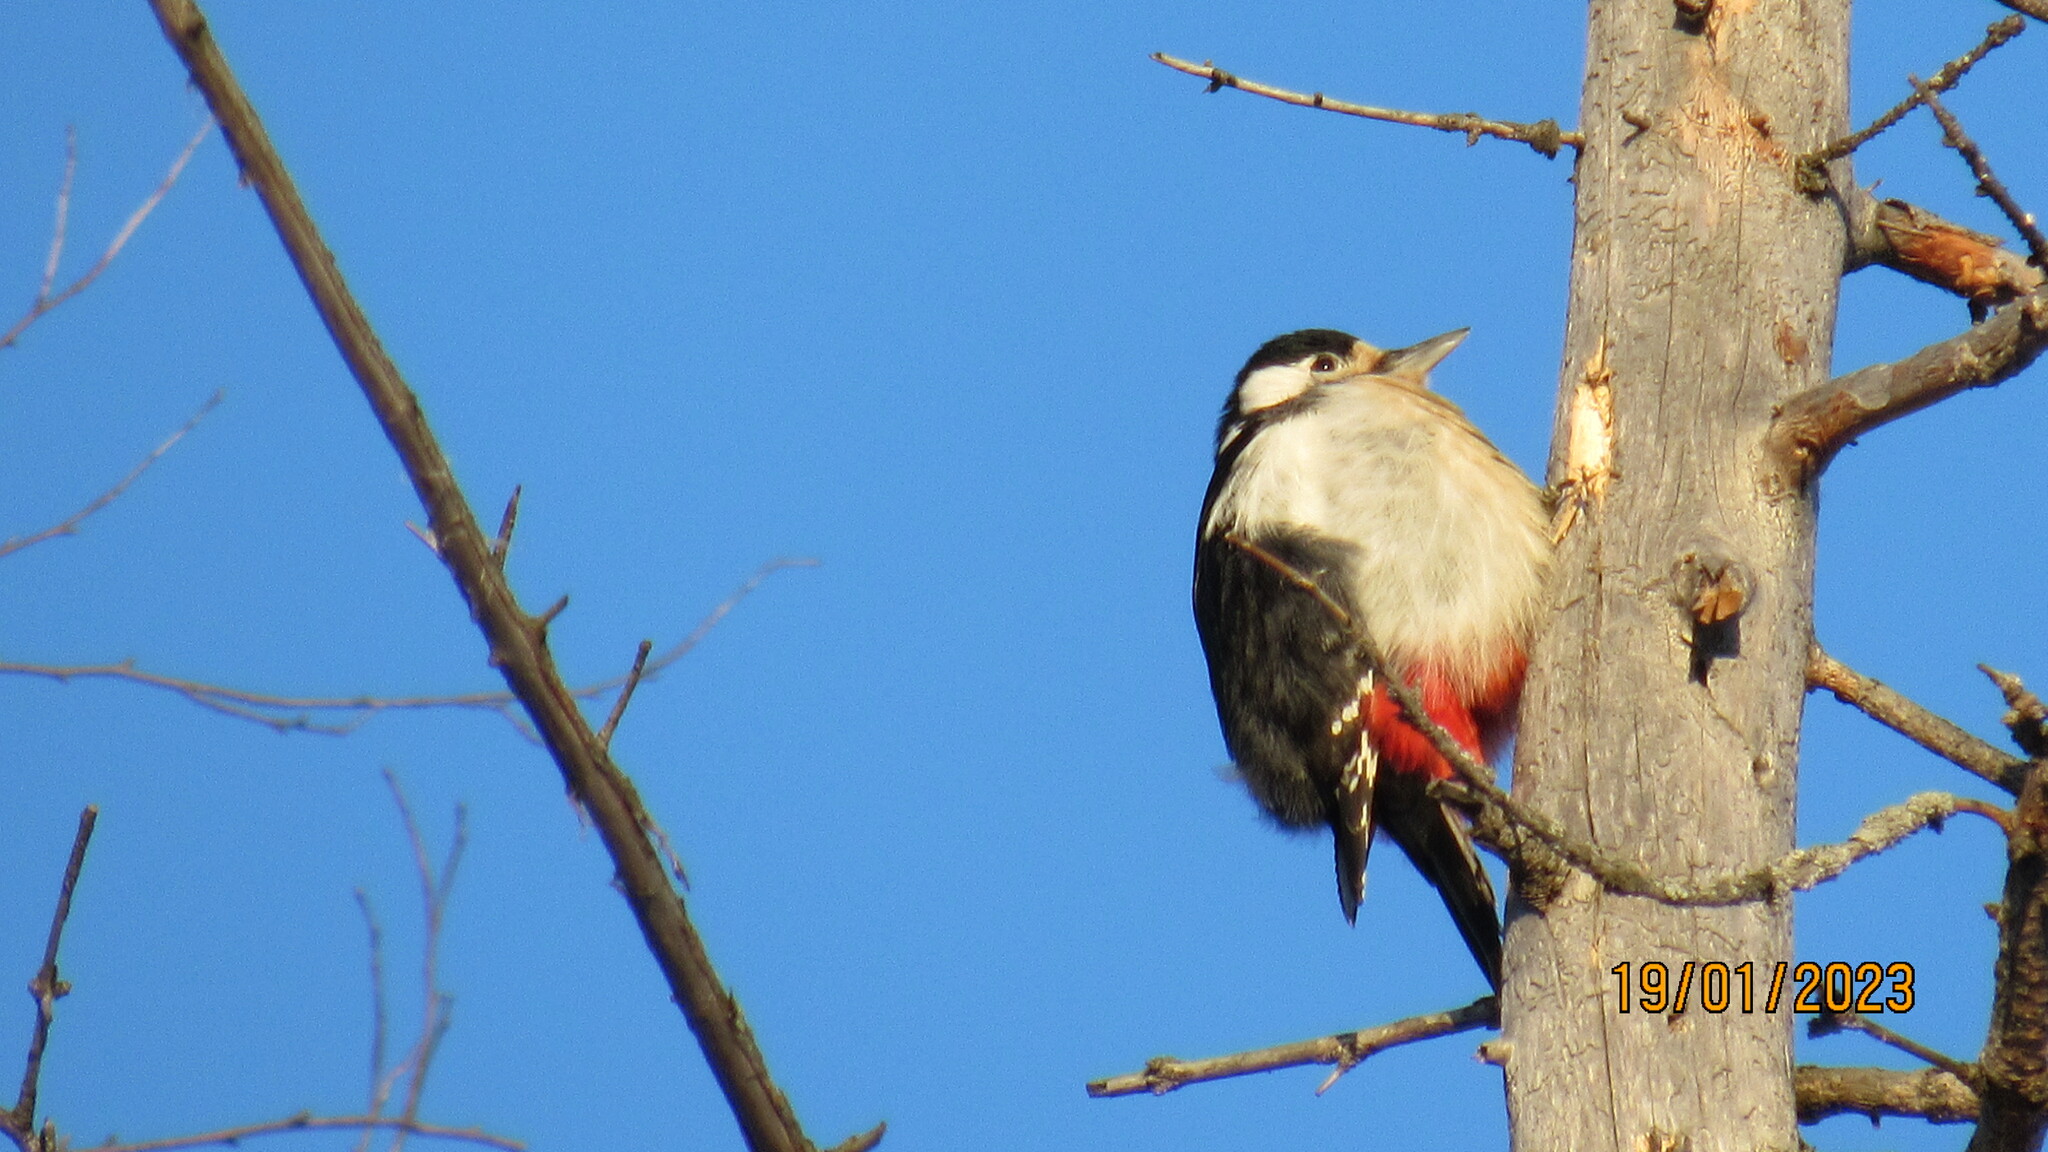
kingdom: Animalia
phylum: Chordata
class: Aves
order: Piciformes
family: Picidae
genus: Dendrocopos
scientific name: Dendrocopos major
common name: Great spotted woodpecker
